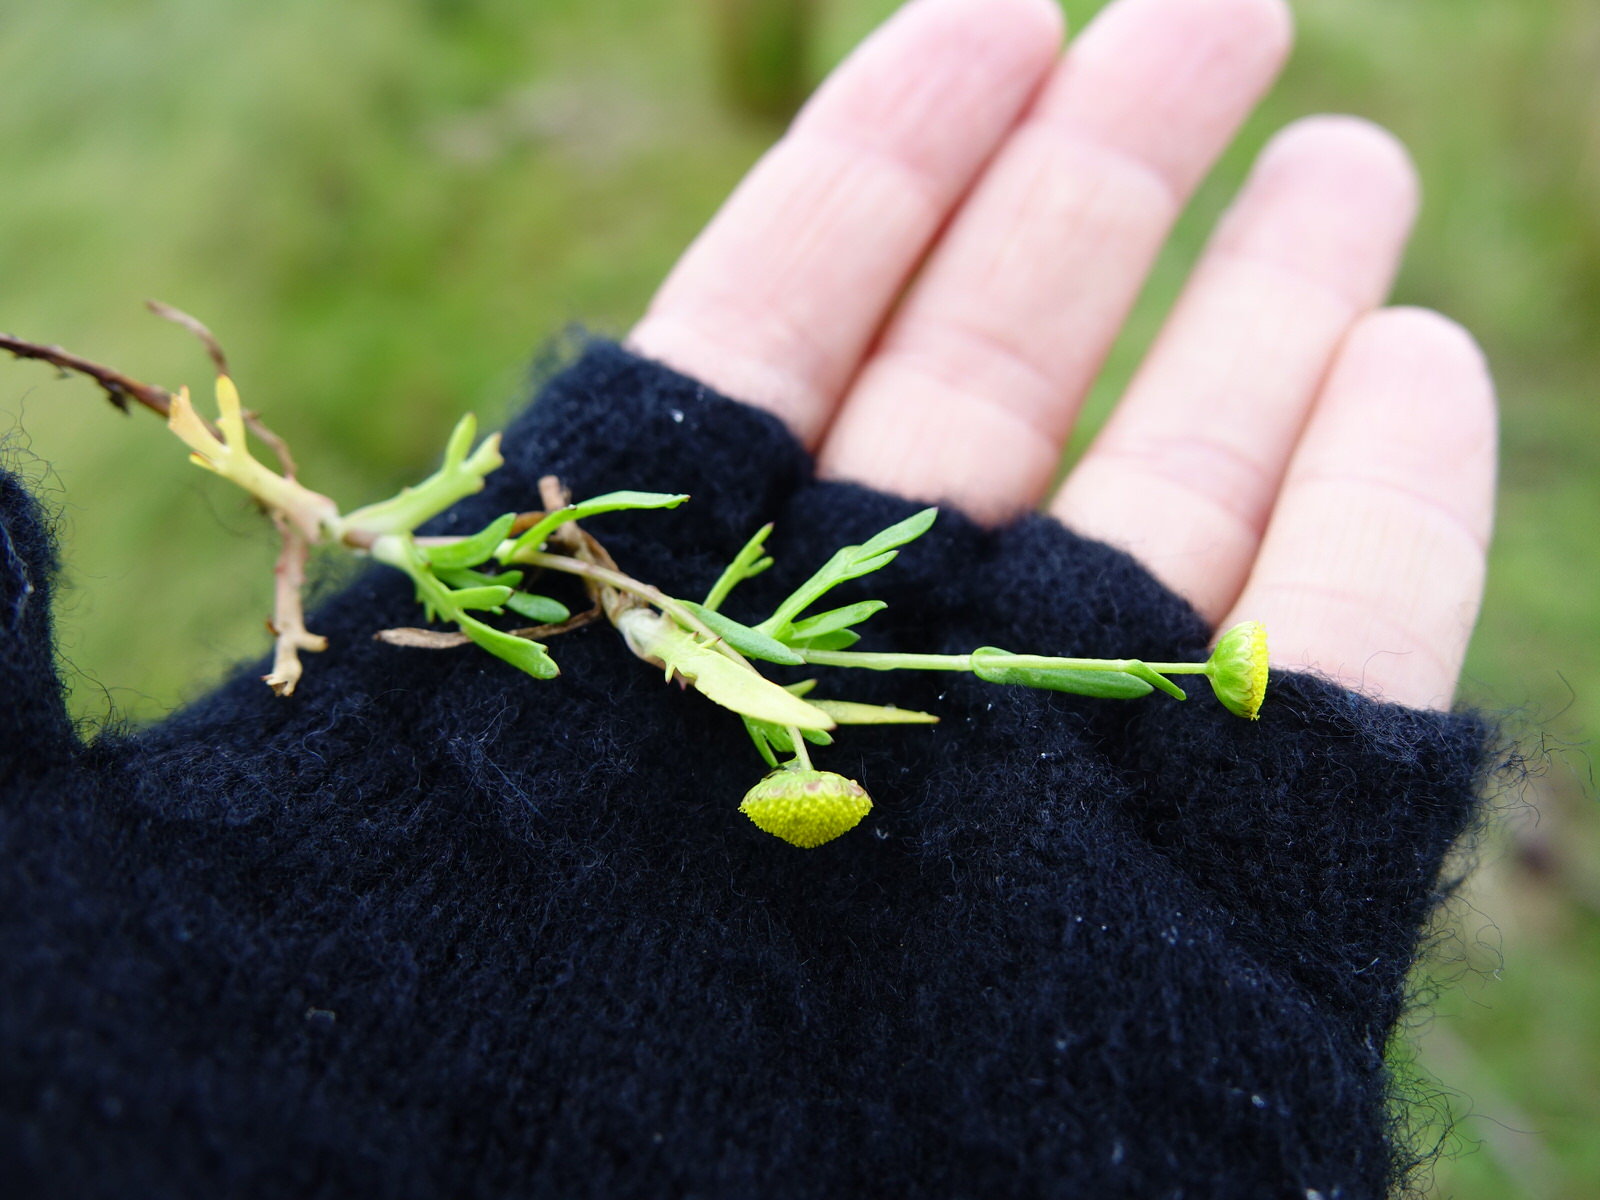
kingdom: Plantae
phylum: Tracheophyta
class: Magnoliopsida
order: Asterales
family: Asteraceae
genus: Cotula
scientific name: Cotula coronopifolia
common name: Buttonweed
